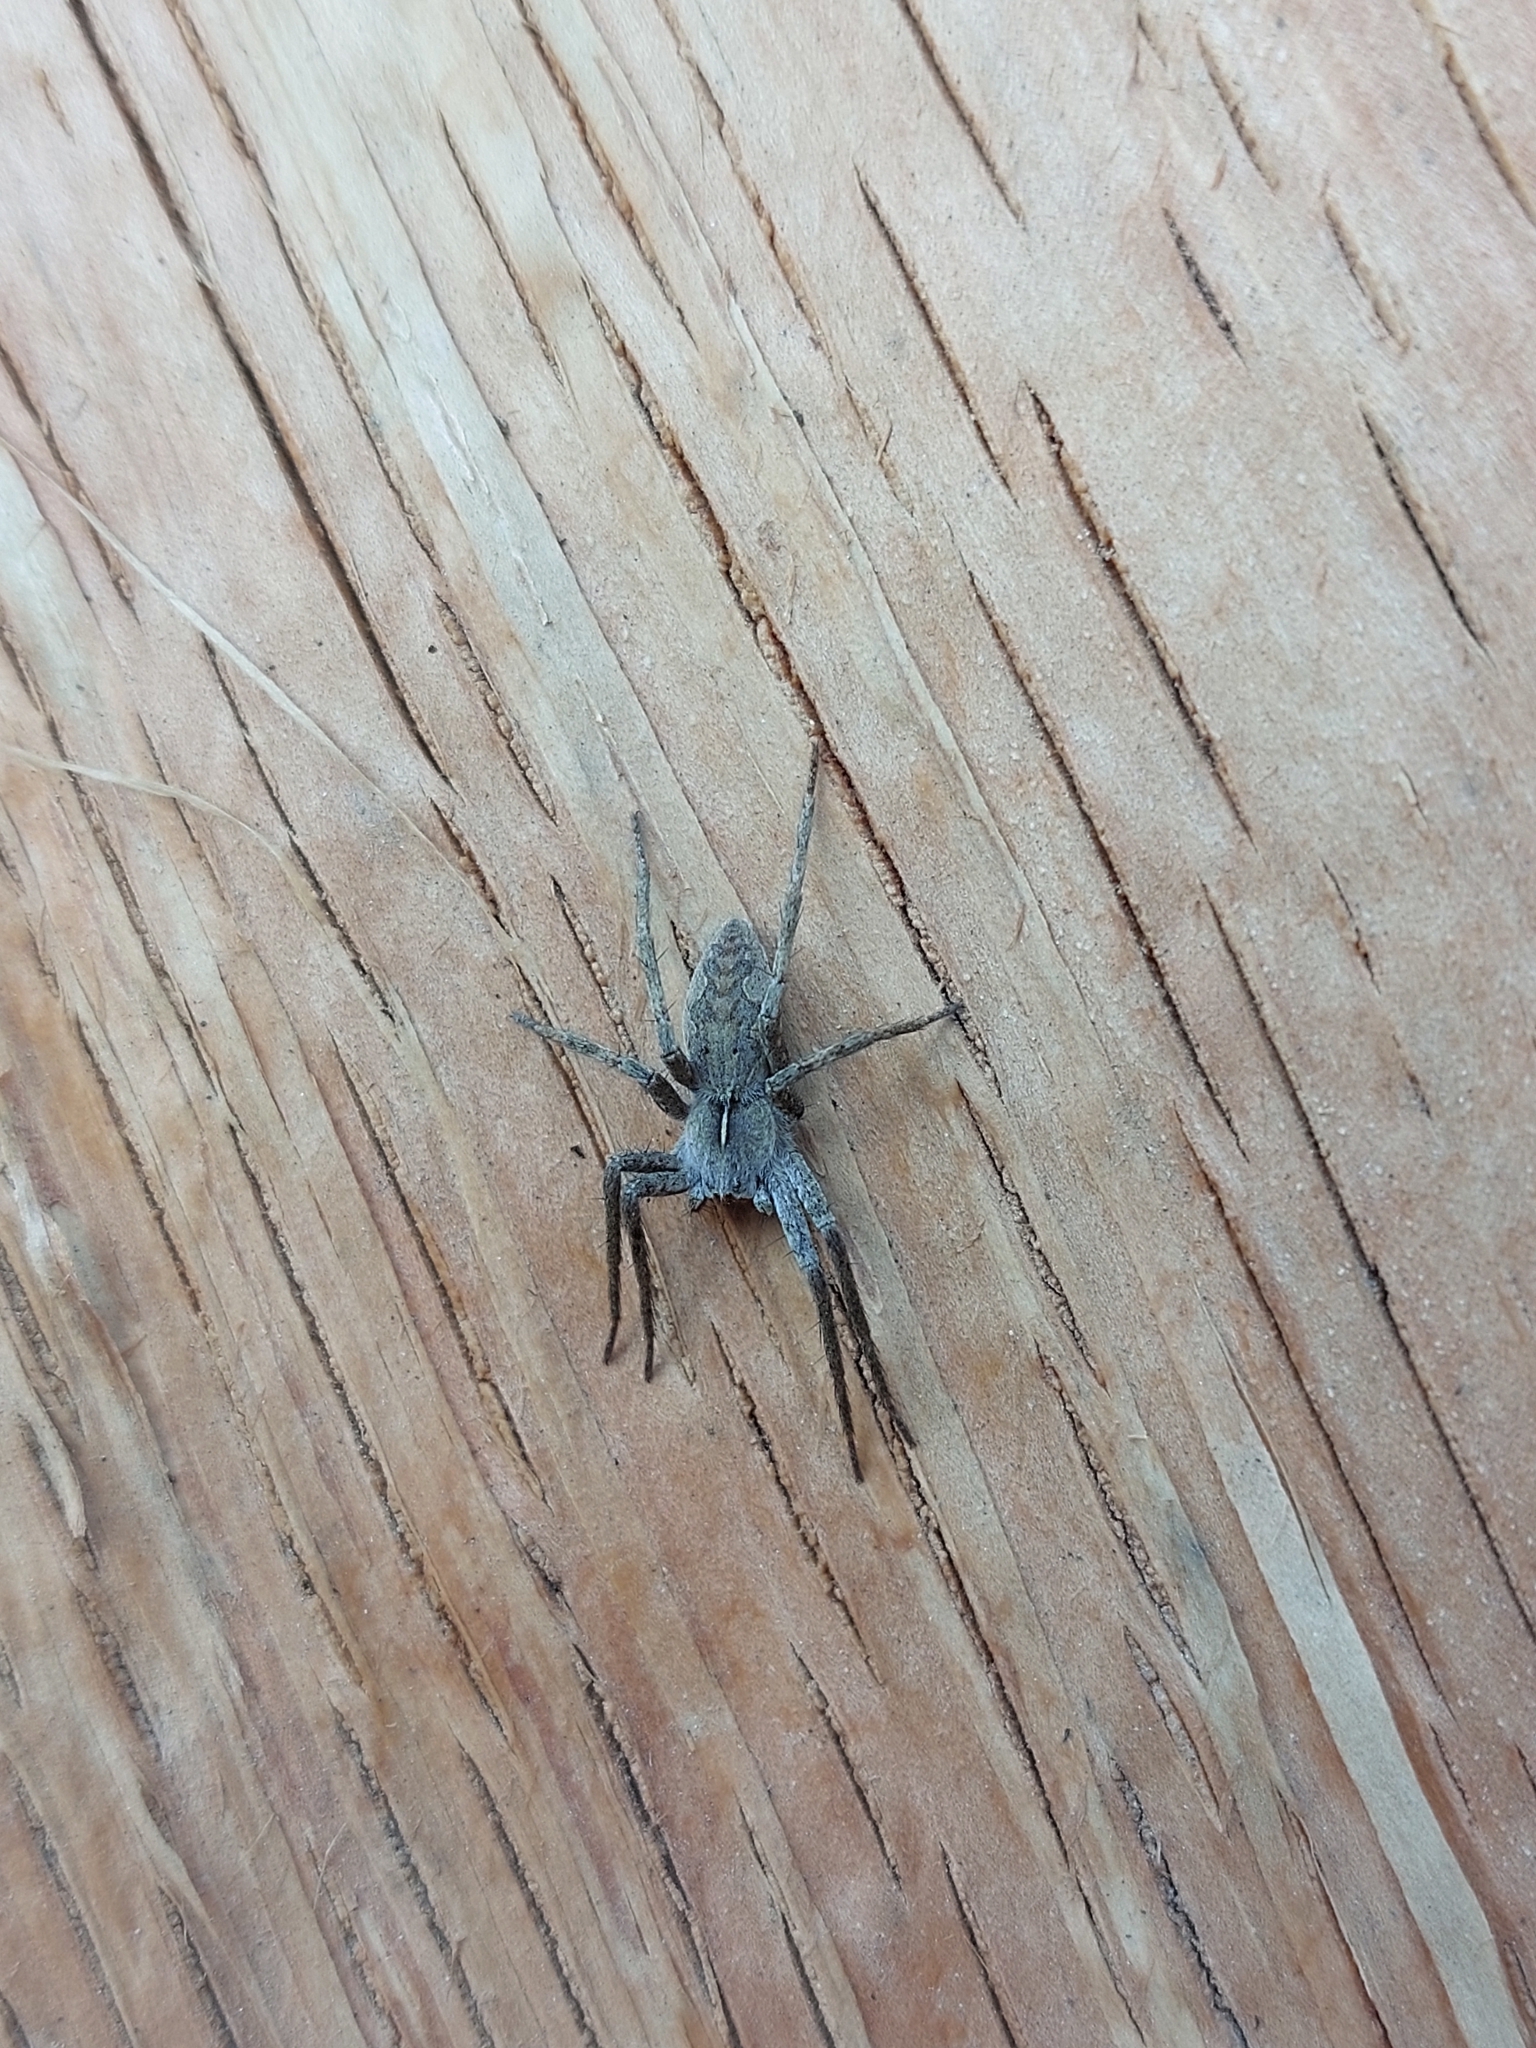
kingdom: Animalia
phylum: Arthropoda
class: Arachnida
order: Araneae
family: Pisauridae
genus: Pisaura
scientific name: Pisaura
